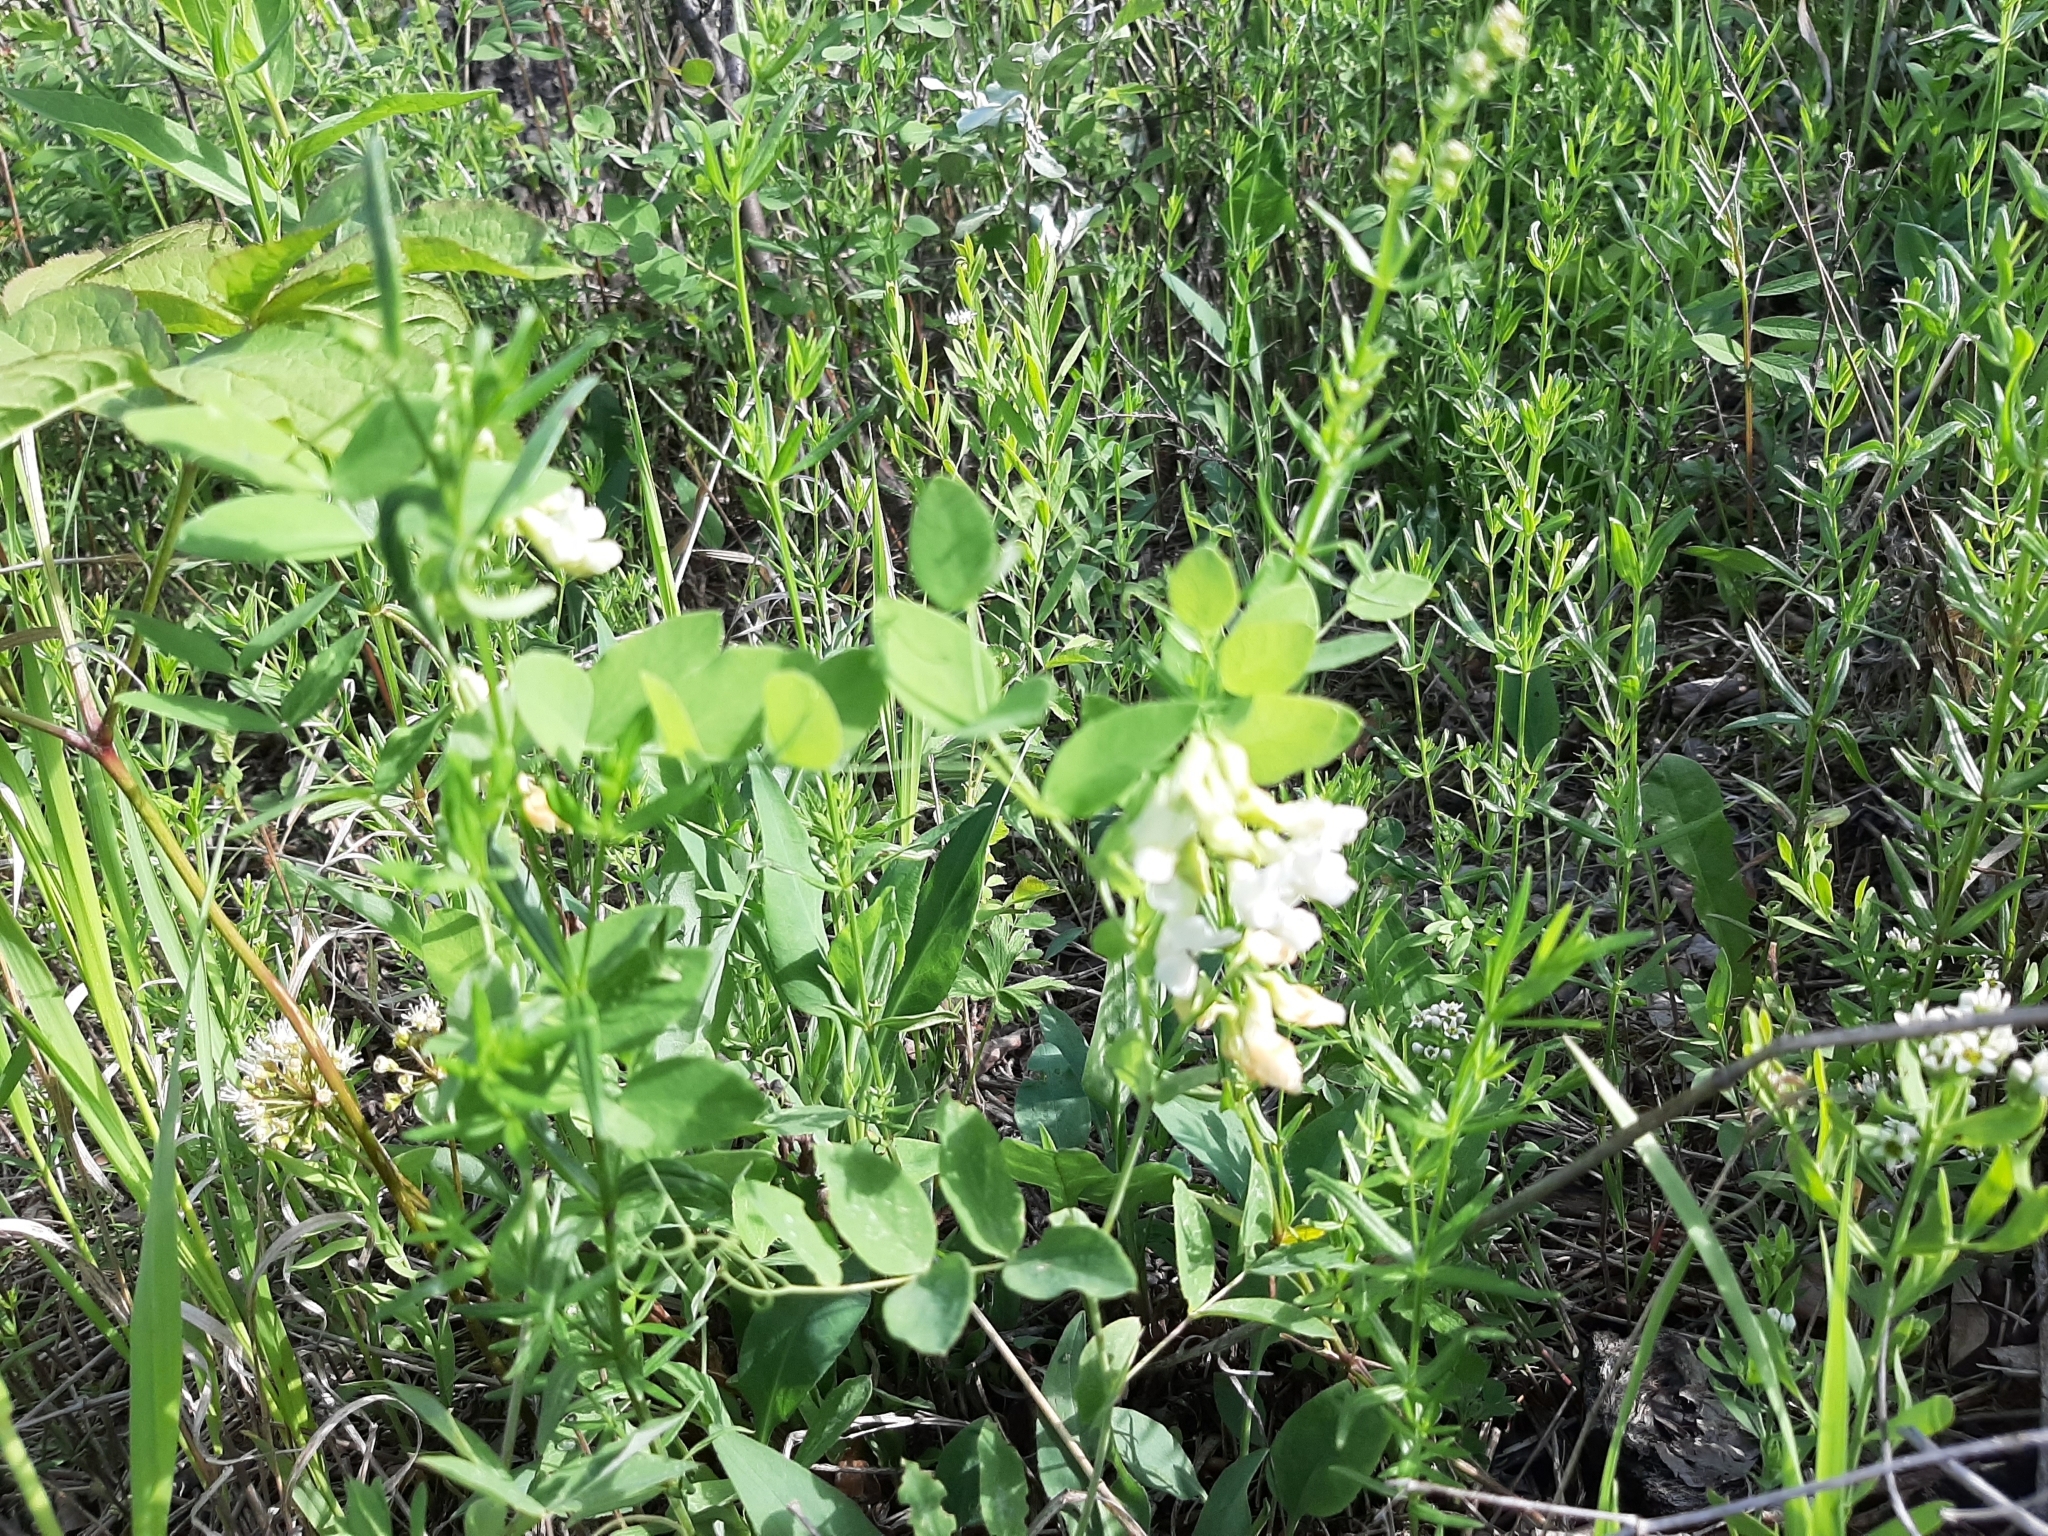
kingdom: Plantae
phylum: Tracheophyta
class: Magnoliopsida
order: Fabales
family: Fabaceae
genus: Lathyrus
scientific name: Lathyrus ochroleucus
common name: Pale vetchling
